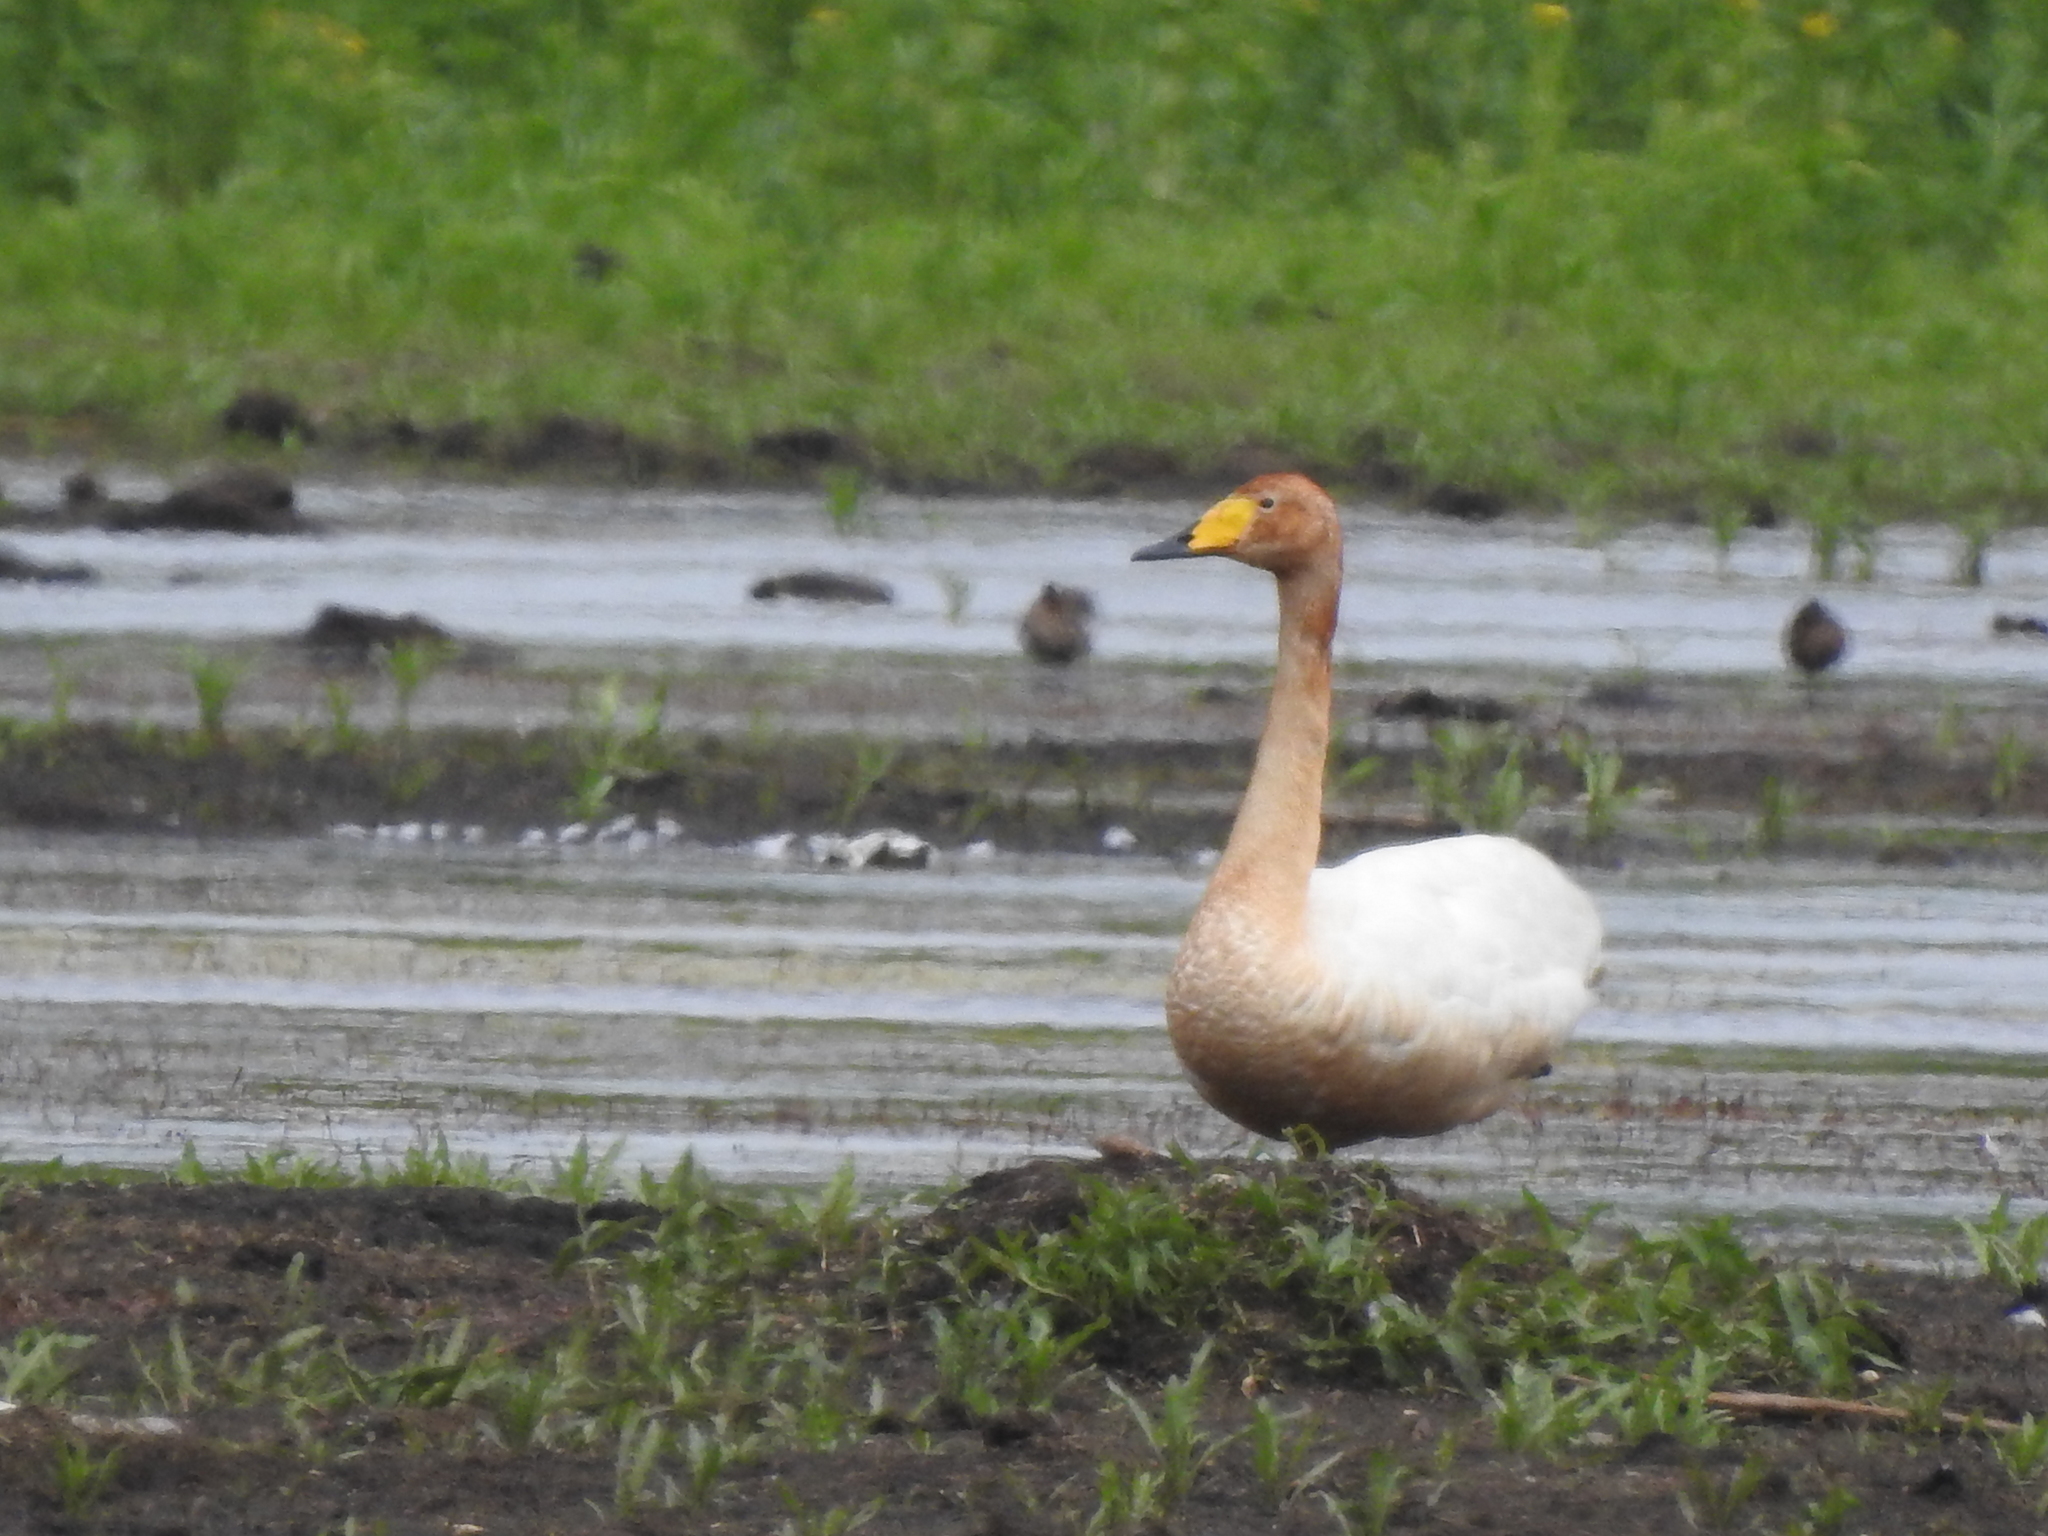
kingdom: Animalia
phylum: Chordata
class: Aves
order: Anseriformes
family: Anatidae
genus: Cygnus
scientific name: Cygnus cygnus
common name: Whooper swan
